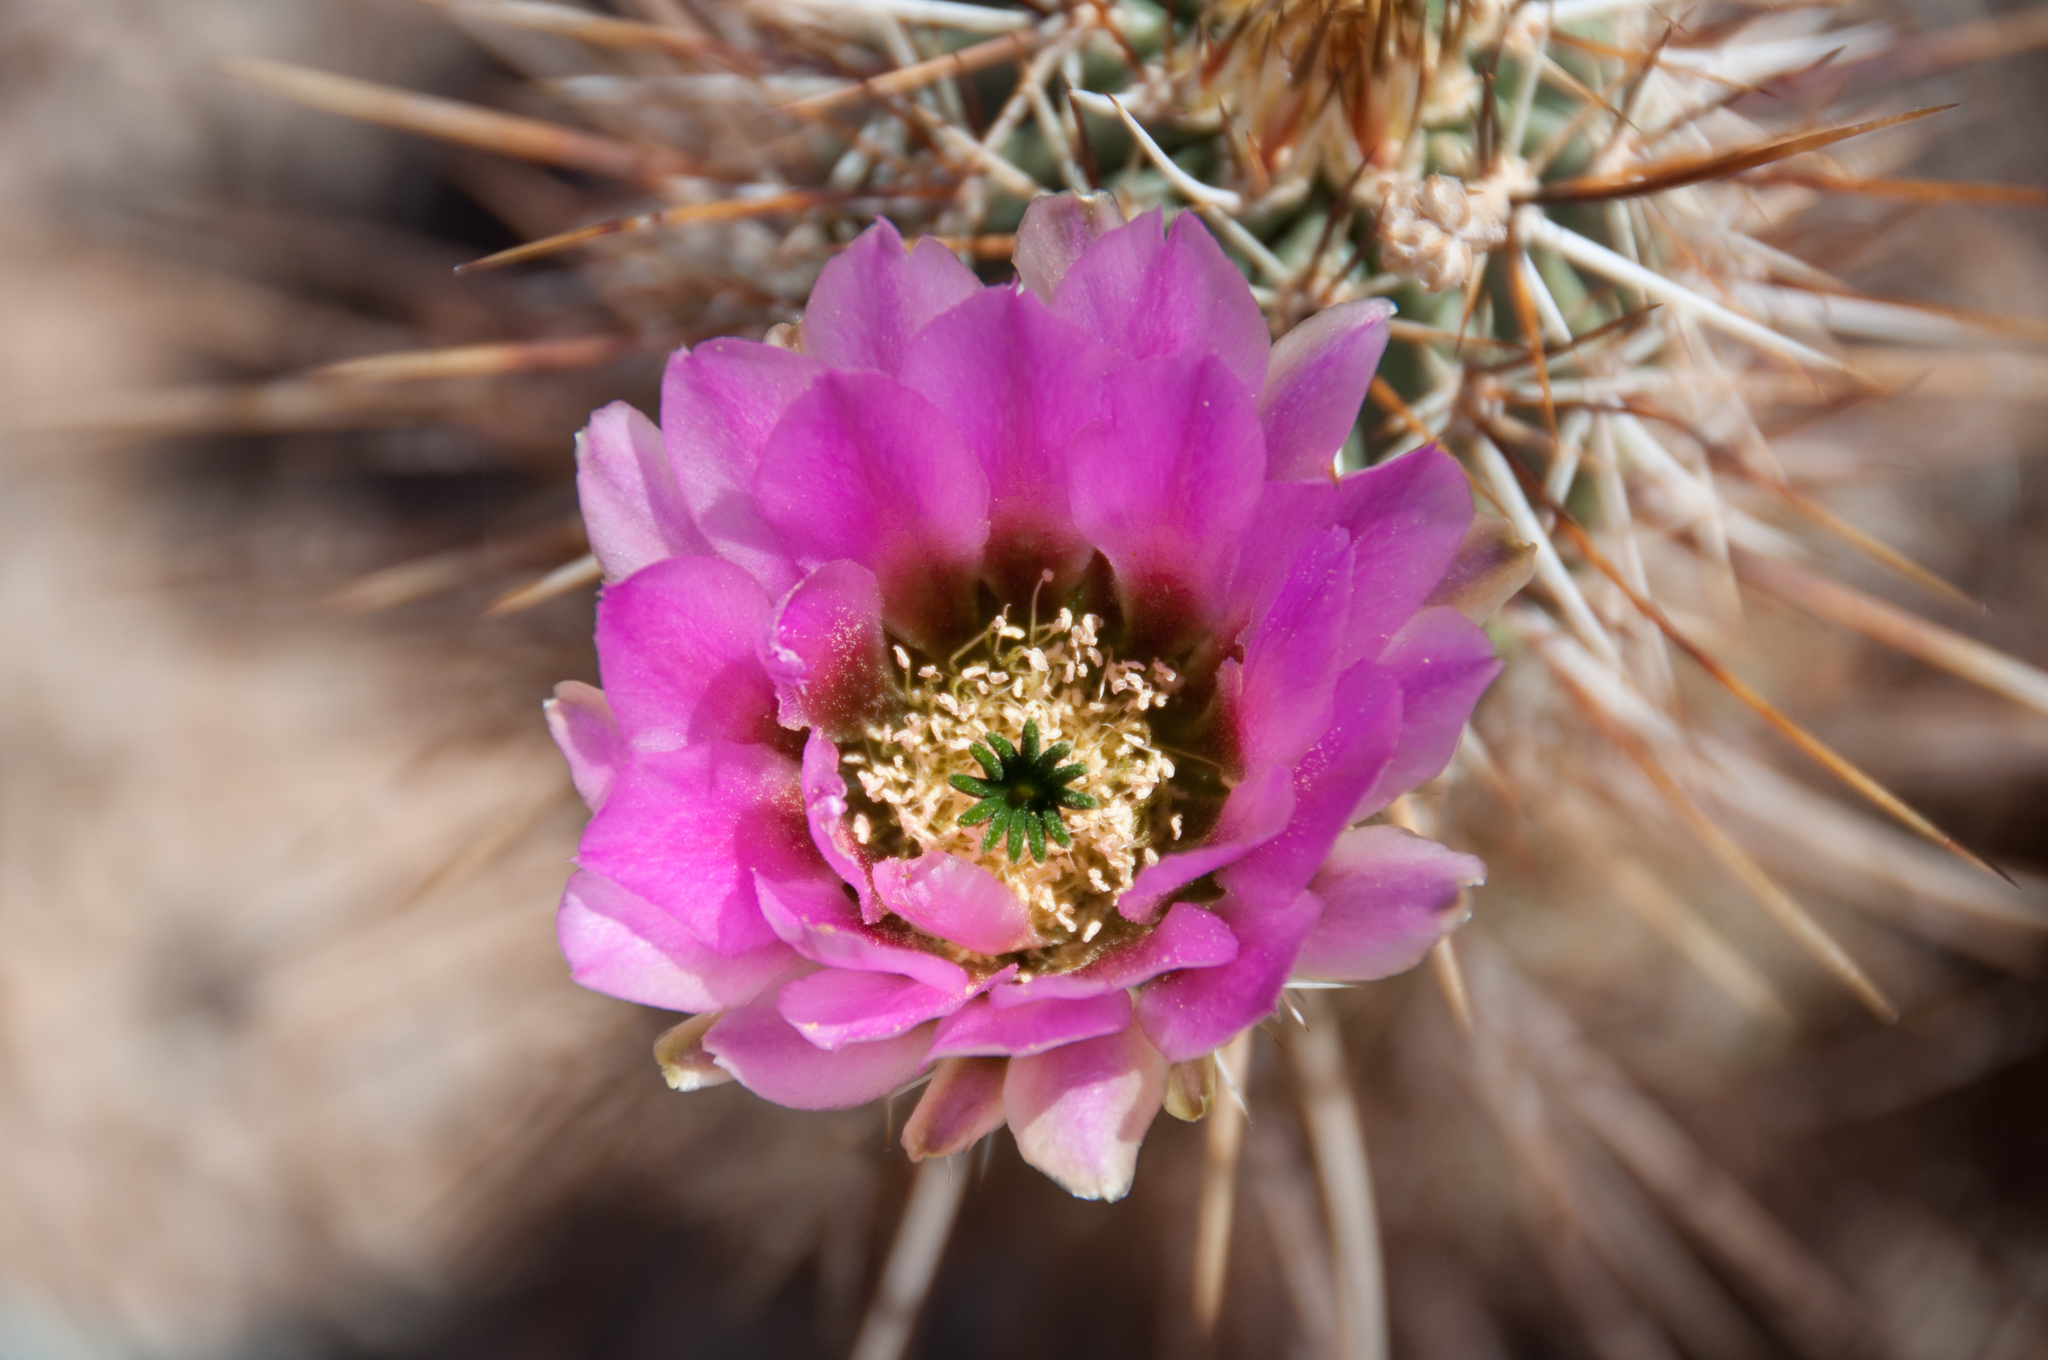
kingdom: Plantae
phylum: Tracheophyta
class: Magnoliopsida
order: Caryophyllales
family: Cactaceae
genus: Echinocereus
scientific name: Echinocereus fasciculatus
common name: Bundle hedgehog
